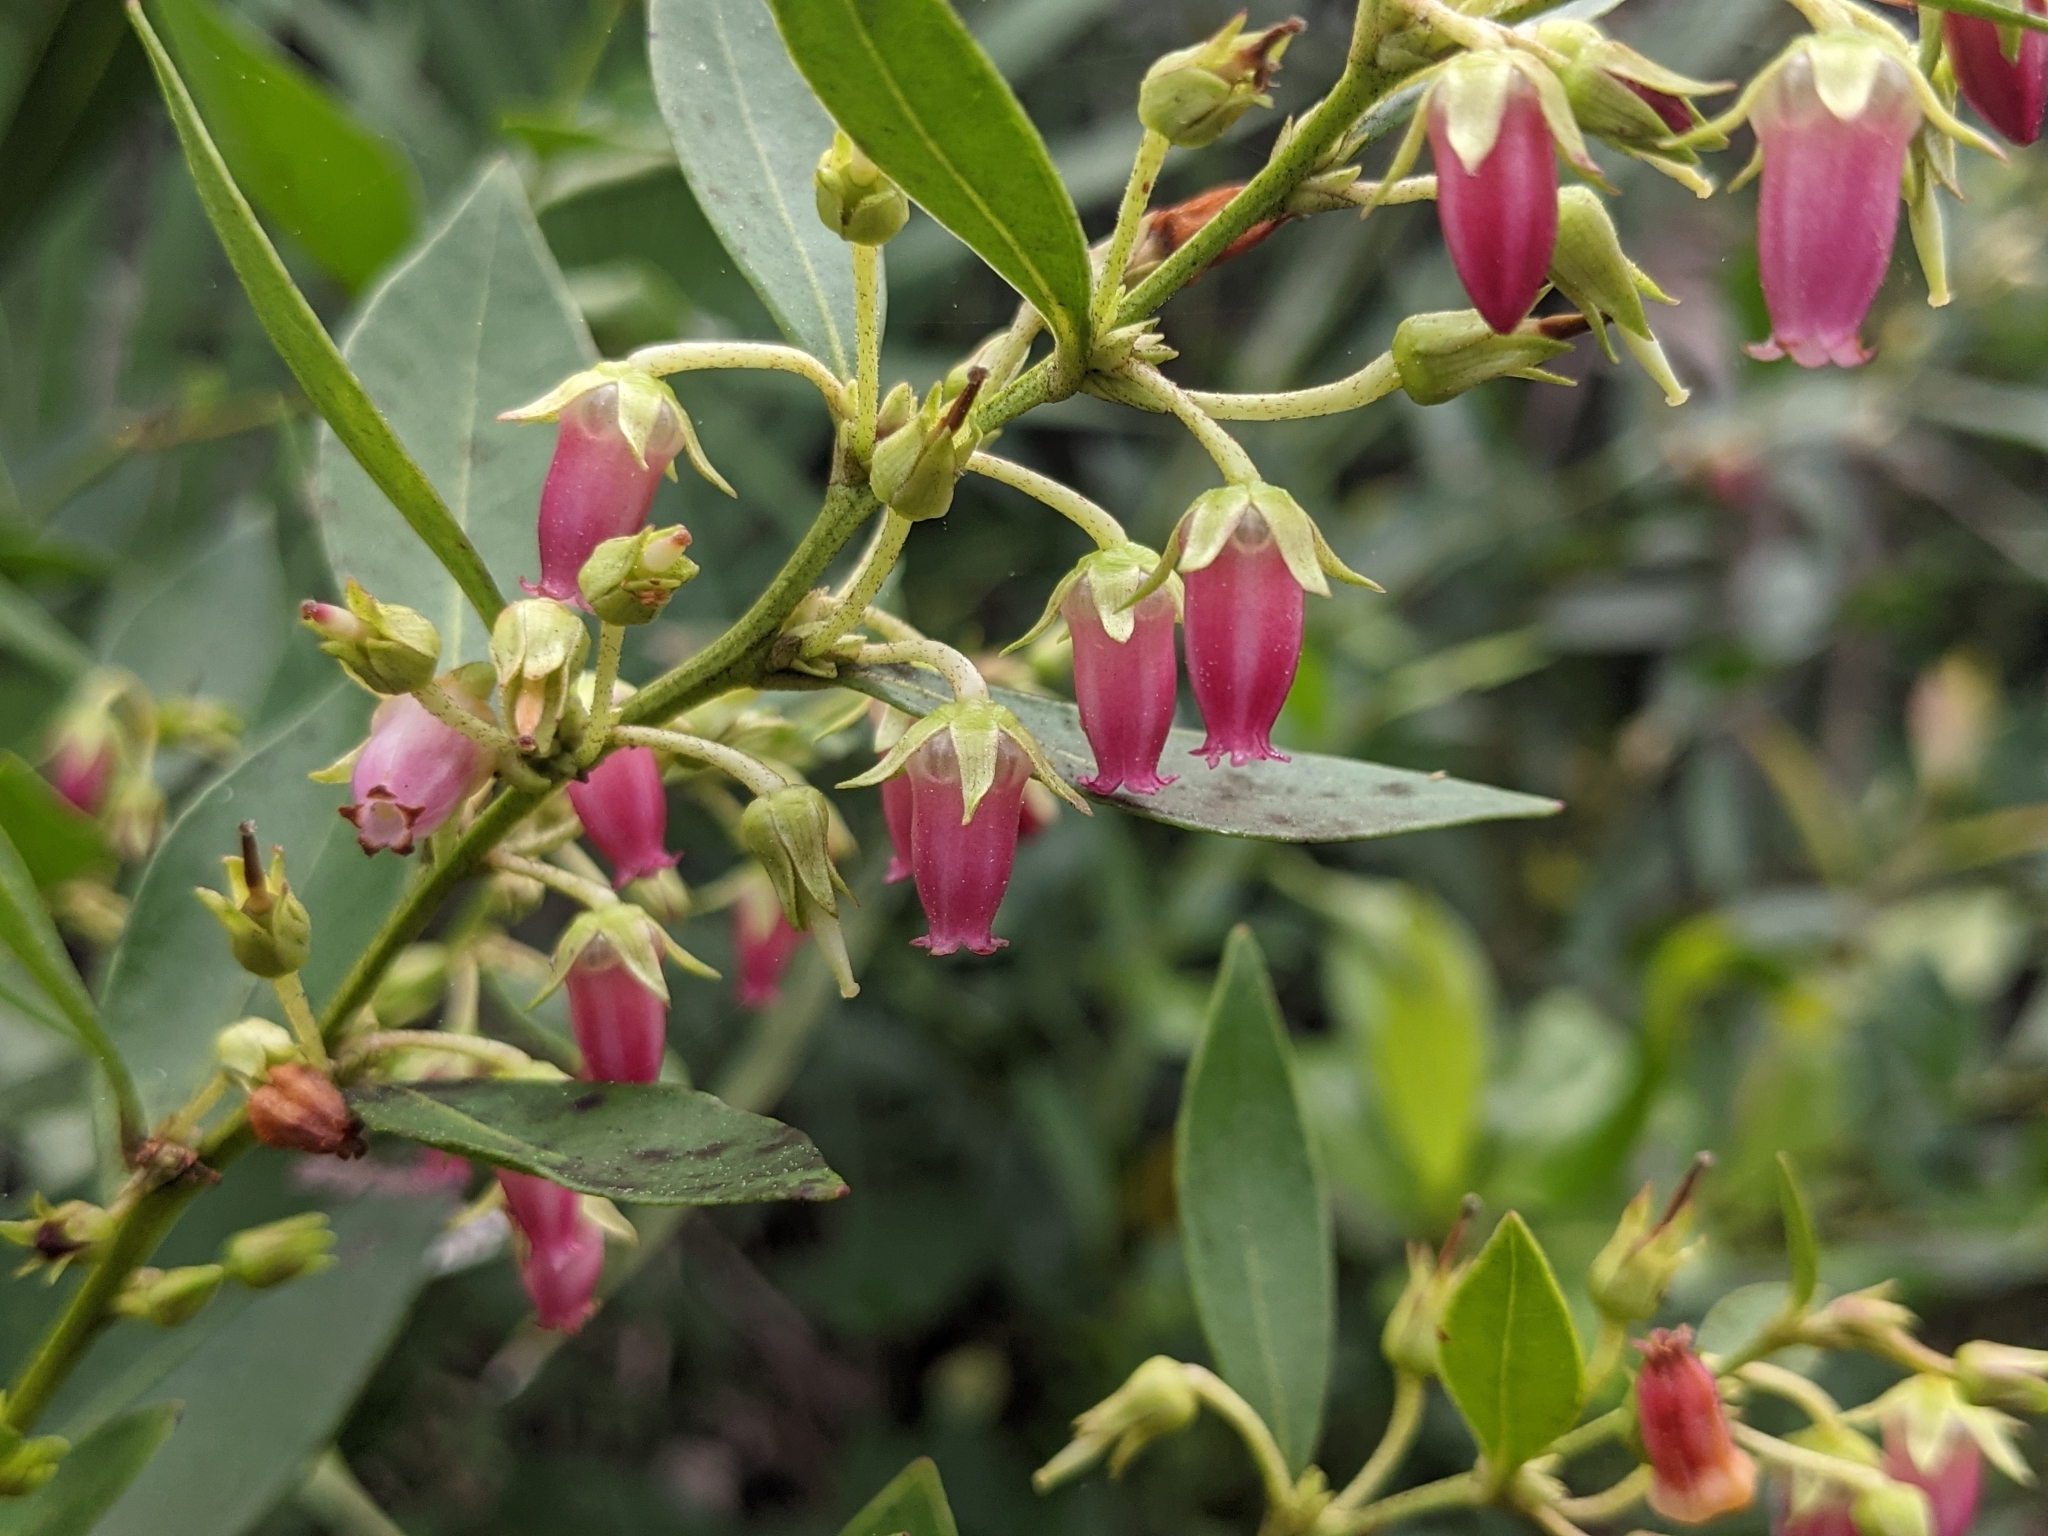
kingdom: Plantae
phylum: Tracheophyta
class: Magnoliopsida
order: Ericales
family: Ericaceae
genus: Lyonia
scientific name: Lyonia lucida
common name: Fetterbush
